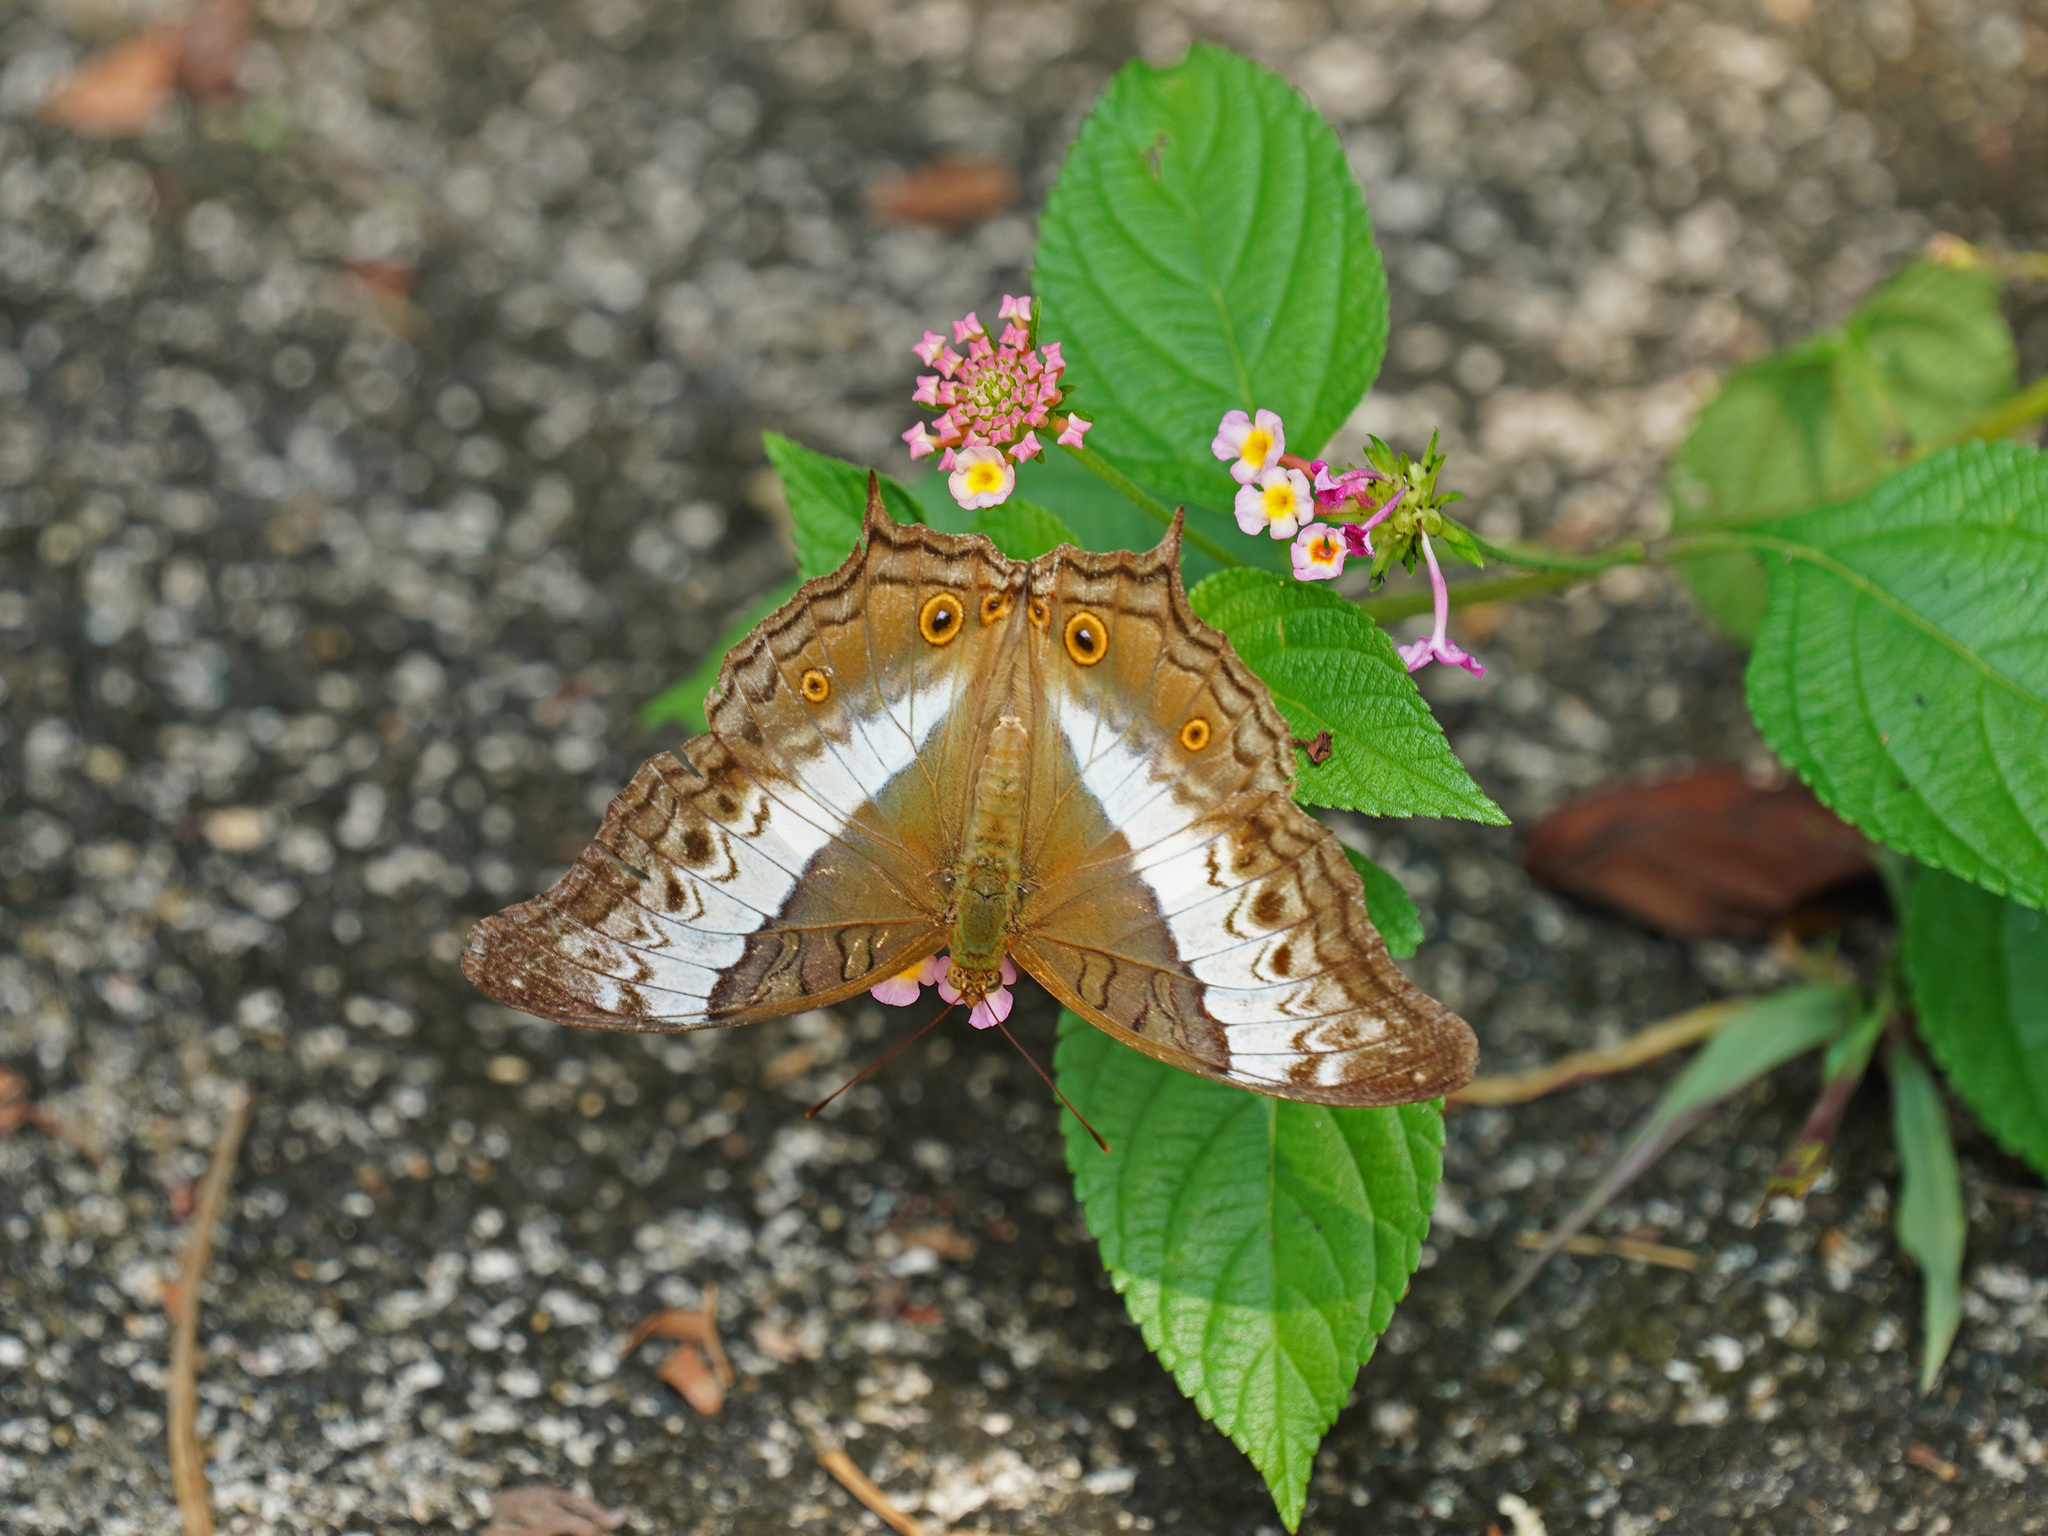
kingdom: Animalia
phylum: Arthropoda
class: Insecta
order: Lepidoptera
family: Nymphalidae
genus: Vindula
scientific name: Vindula deione
